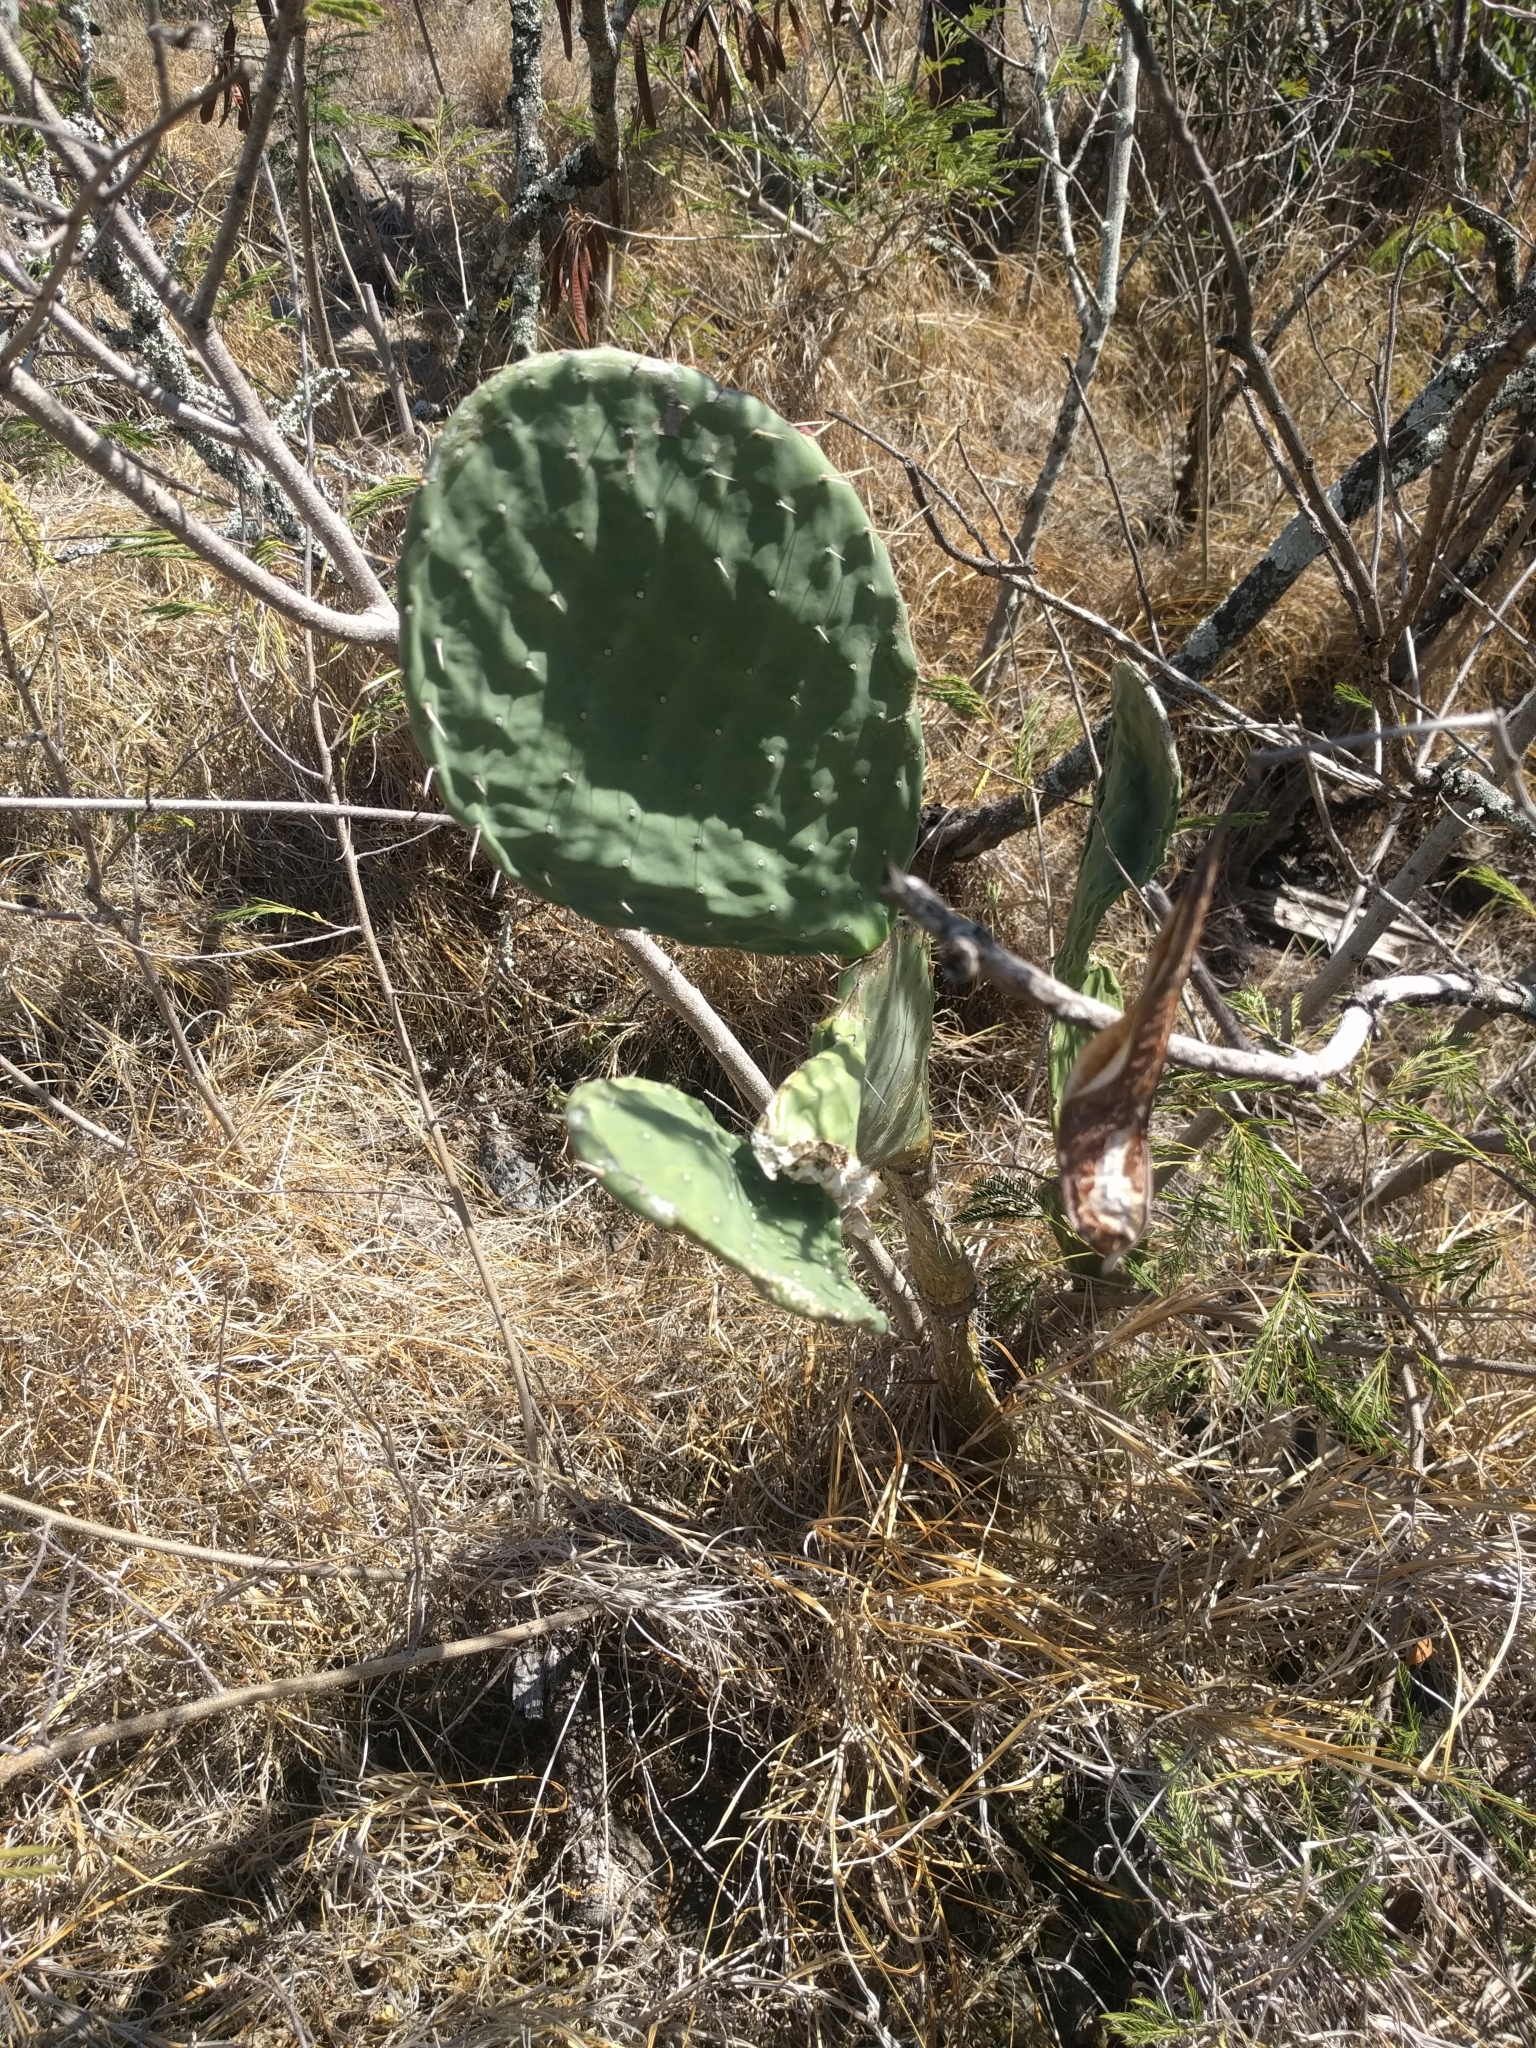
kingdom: Plantae
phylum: Tracheophyta
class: Magnoliopsida
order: Caryophyllales
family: Cactaceae
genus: Opuntia
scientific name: Opuntia ficus-indica
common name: Barbary fig
